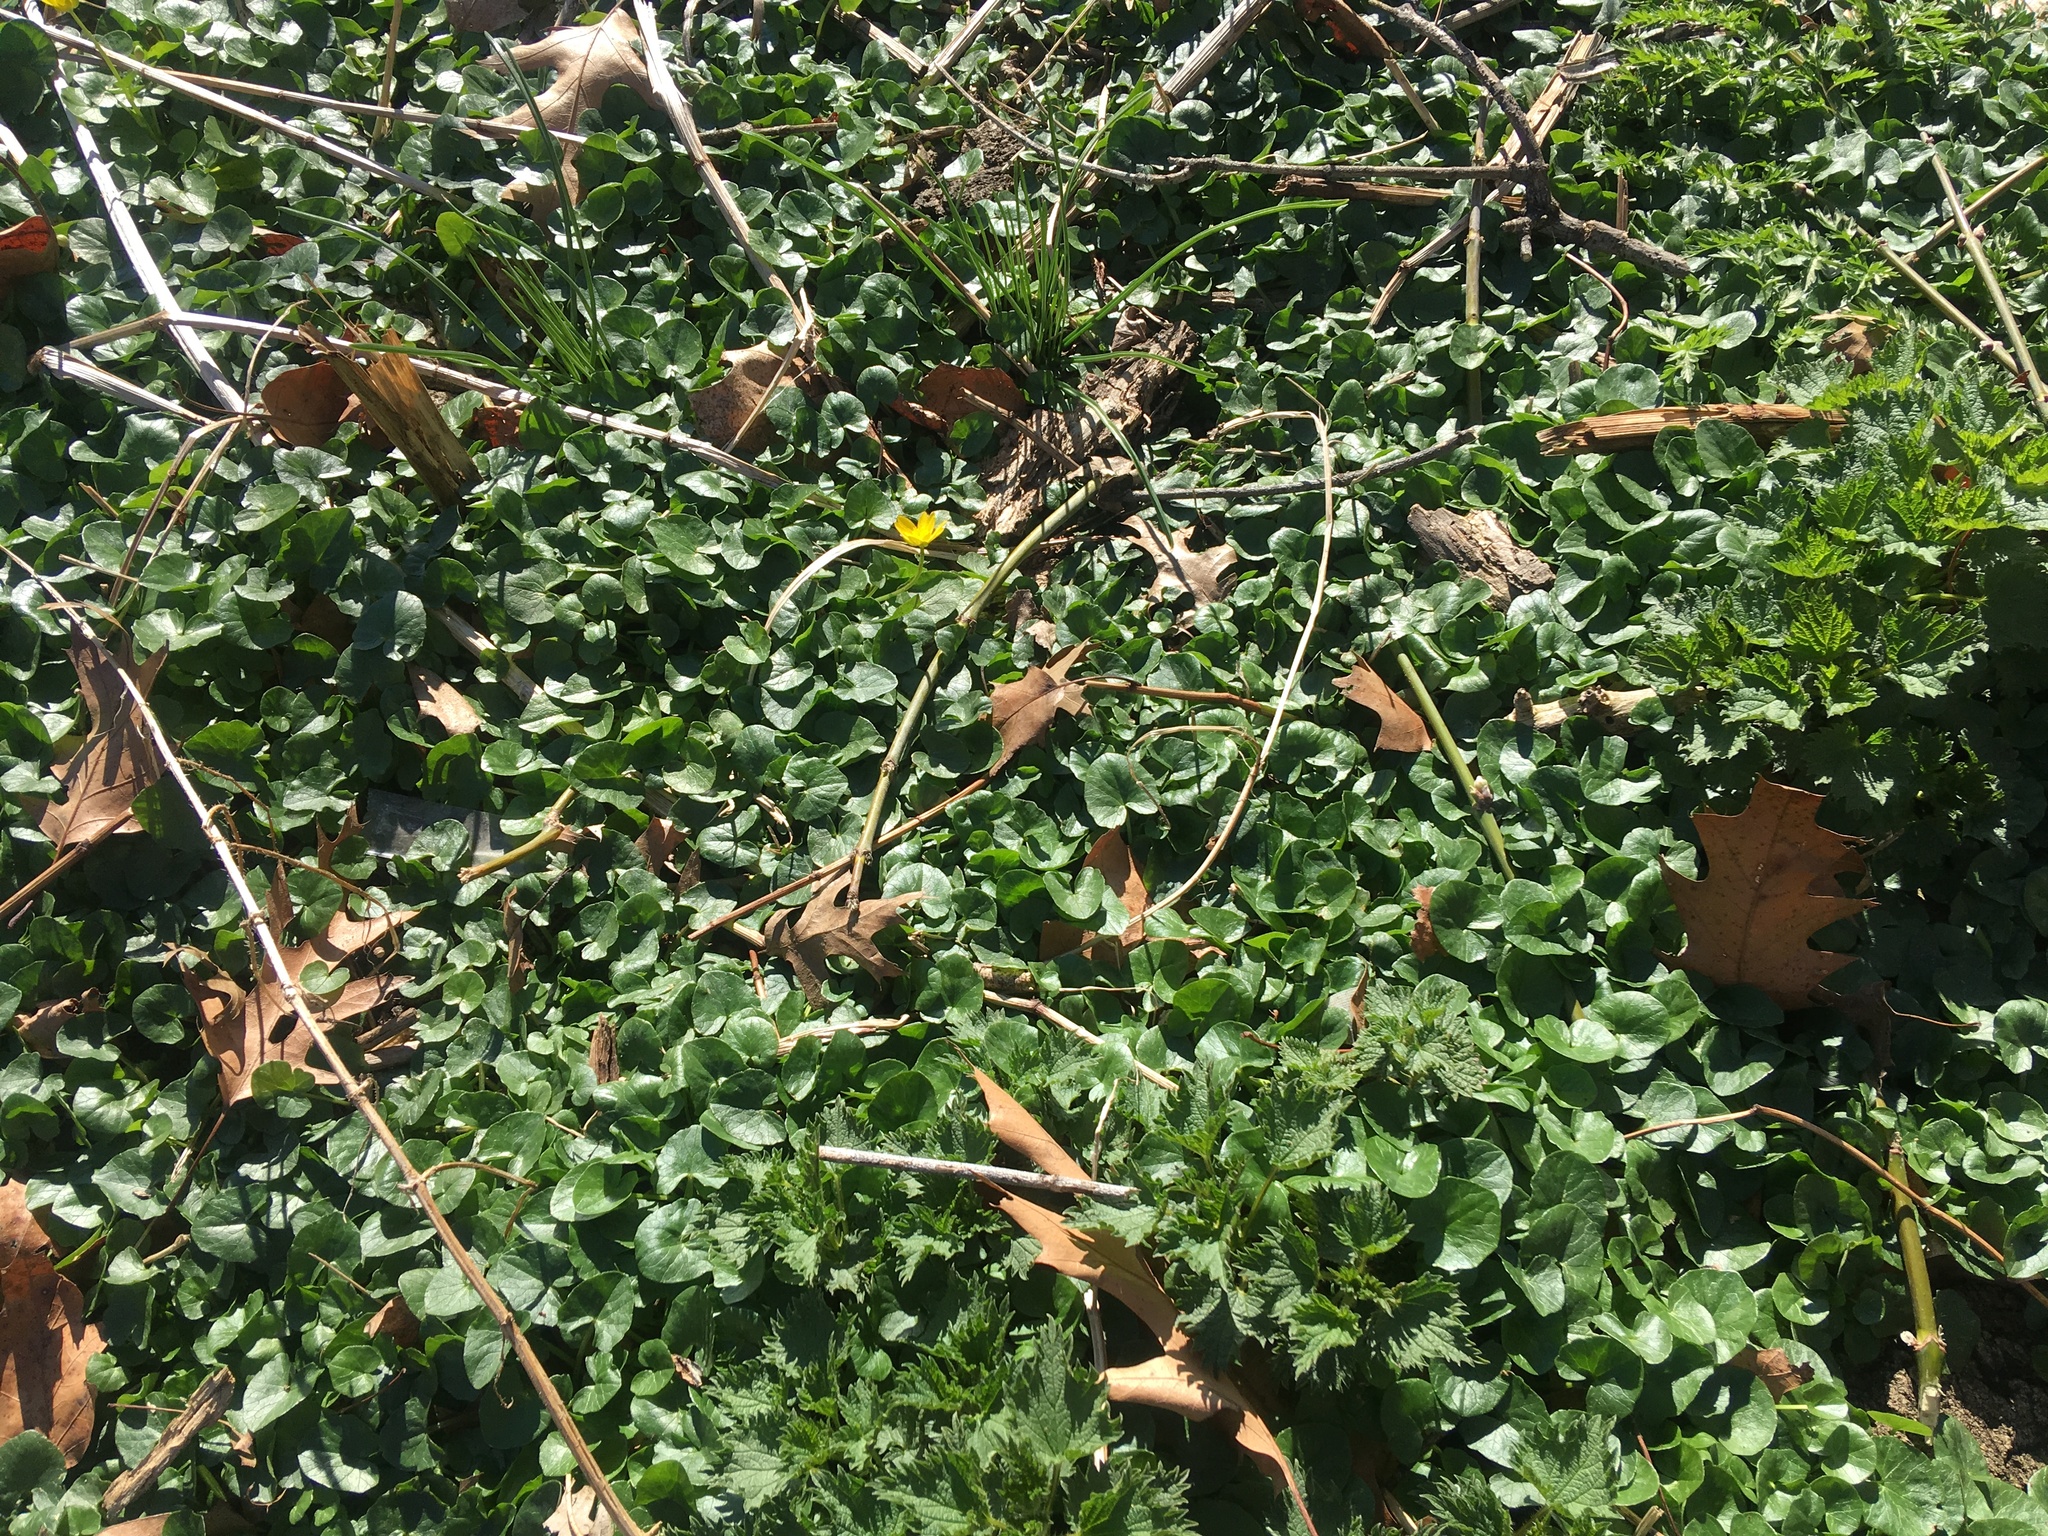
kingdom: Plantae
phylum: Tracheophyta
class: Magnoliopsida
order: Ranunculales
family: Ranunculaceae
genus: Ficaria
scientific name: Ficaria verna
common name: Lesser celandine
